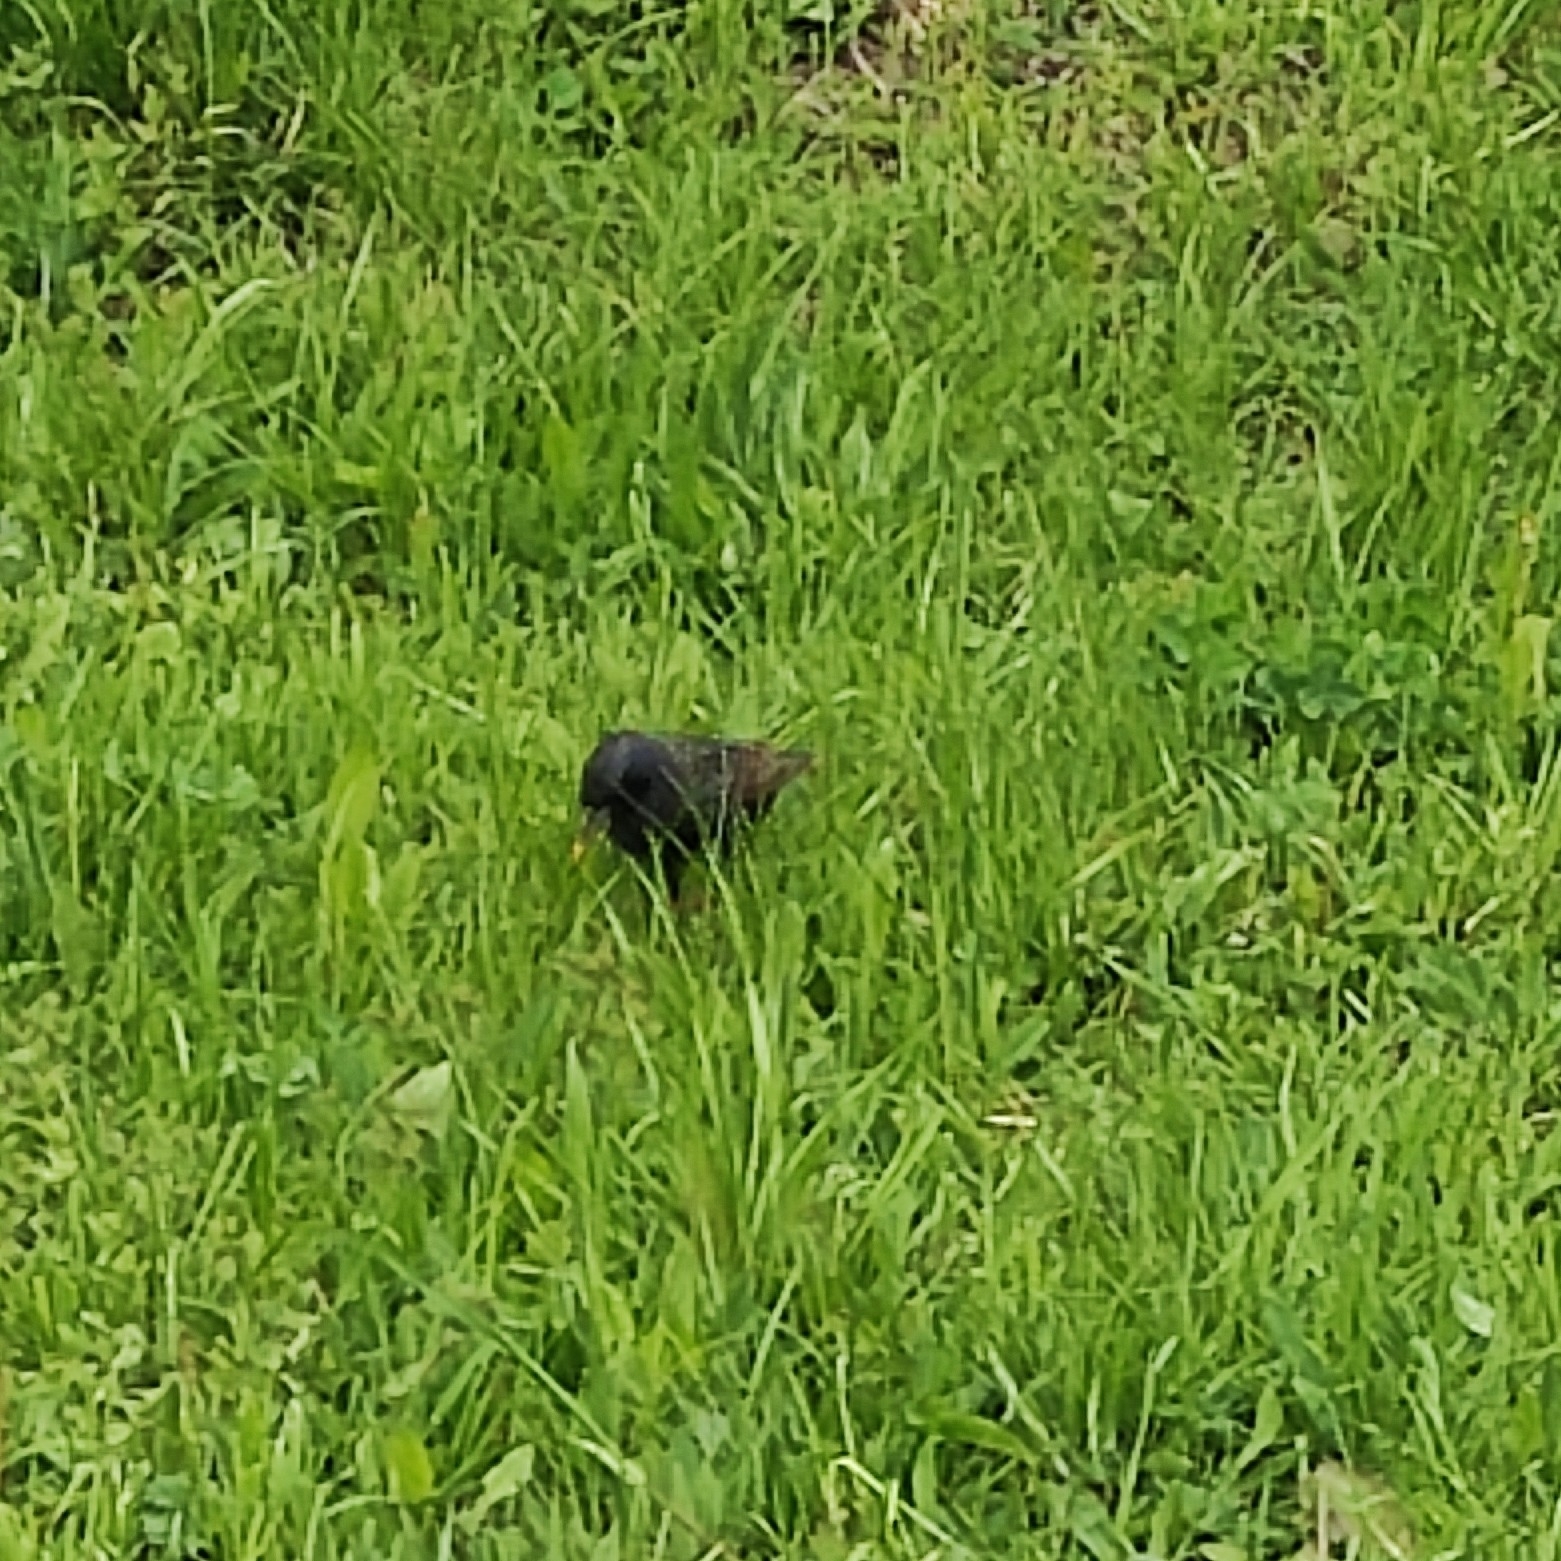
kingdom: Animalia
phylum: Chordata
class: Aves
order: Passeriformes
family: Sturnidae
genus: Sturnus
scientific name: Sturnus vulgaris
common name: Common starling
